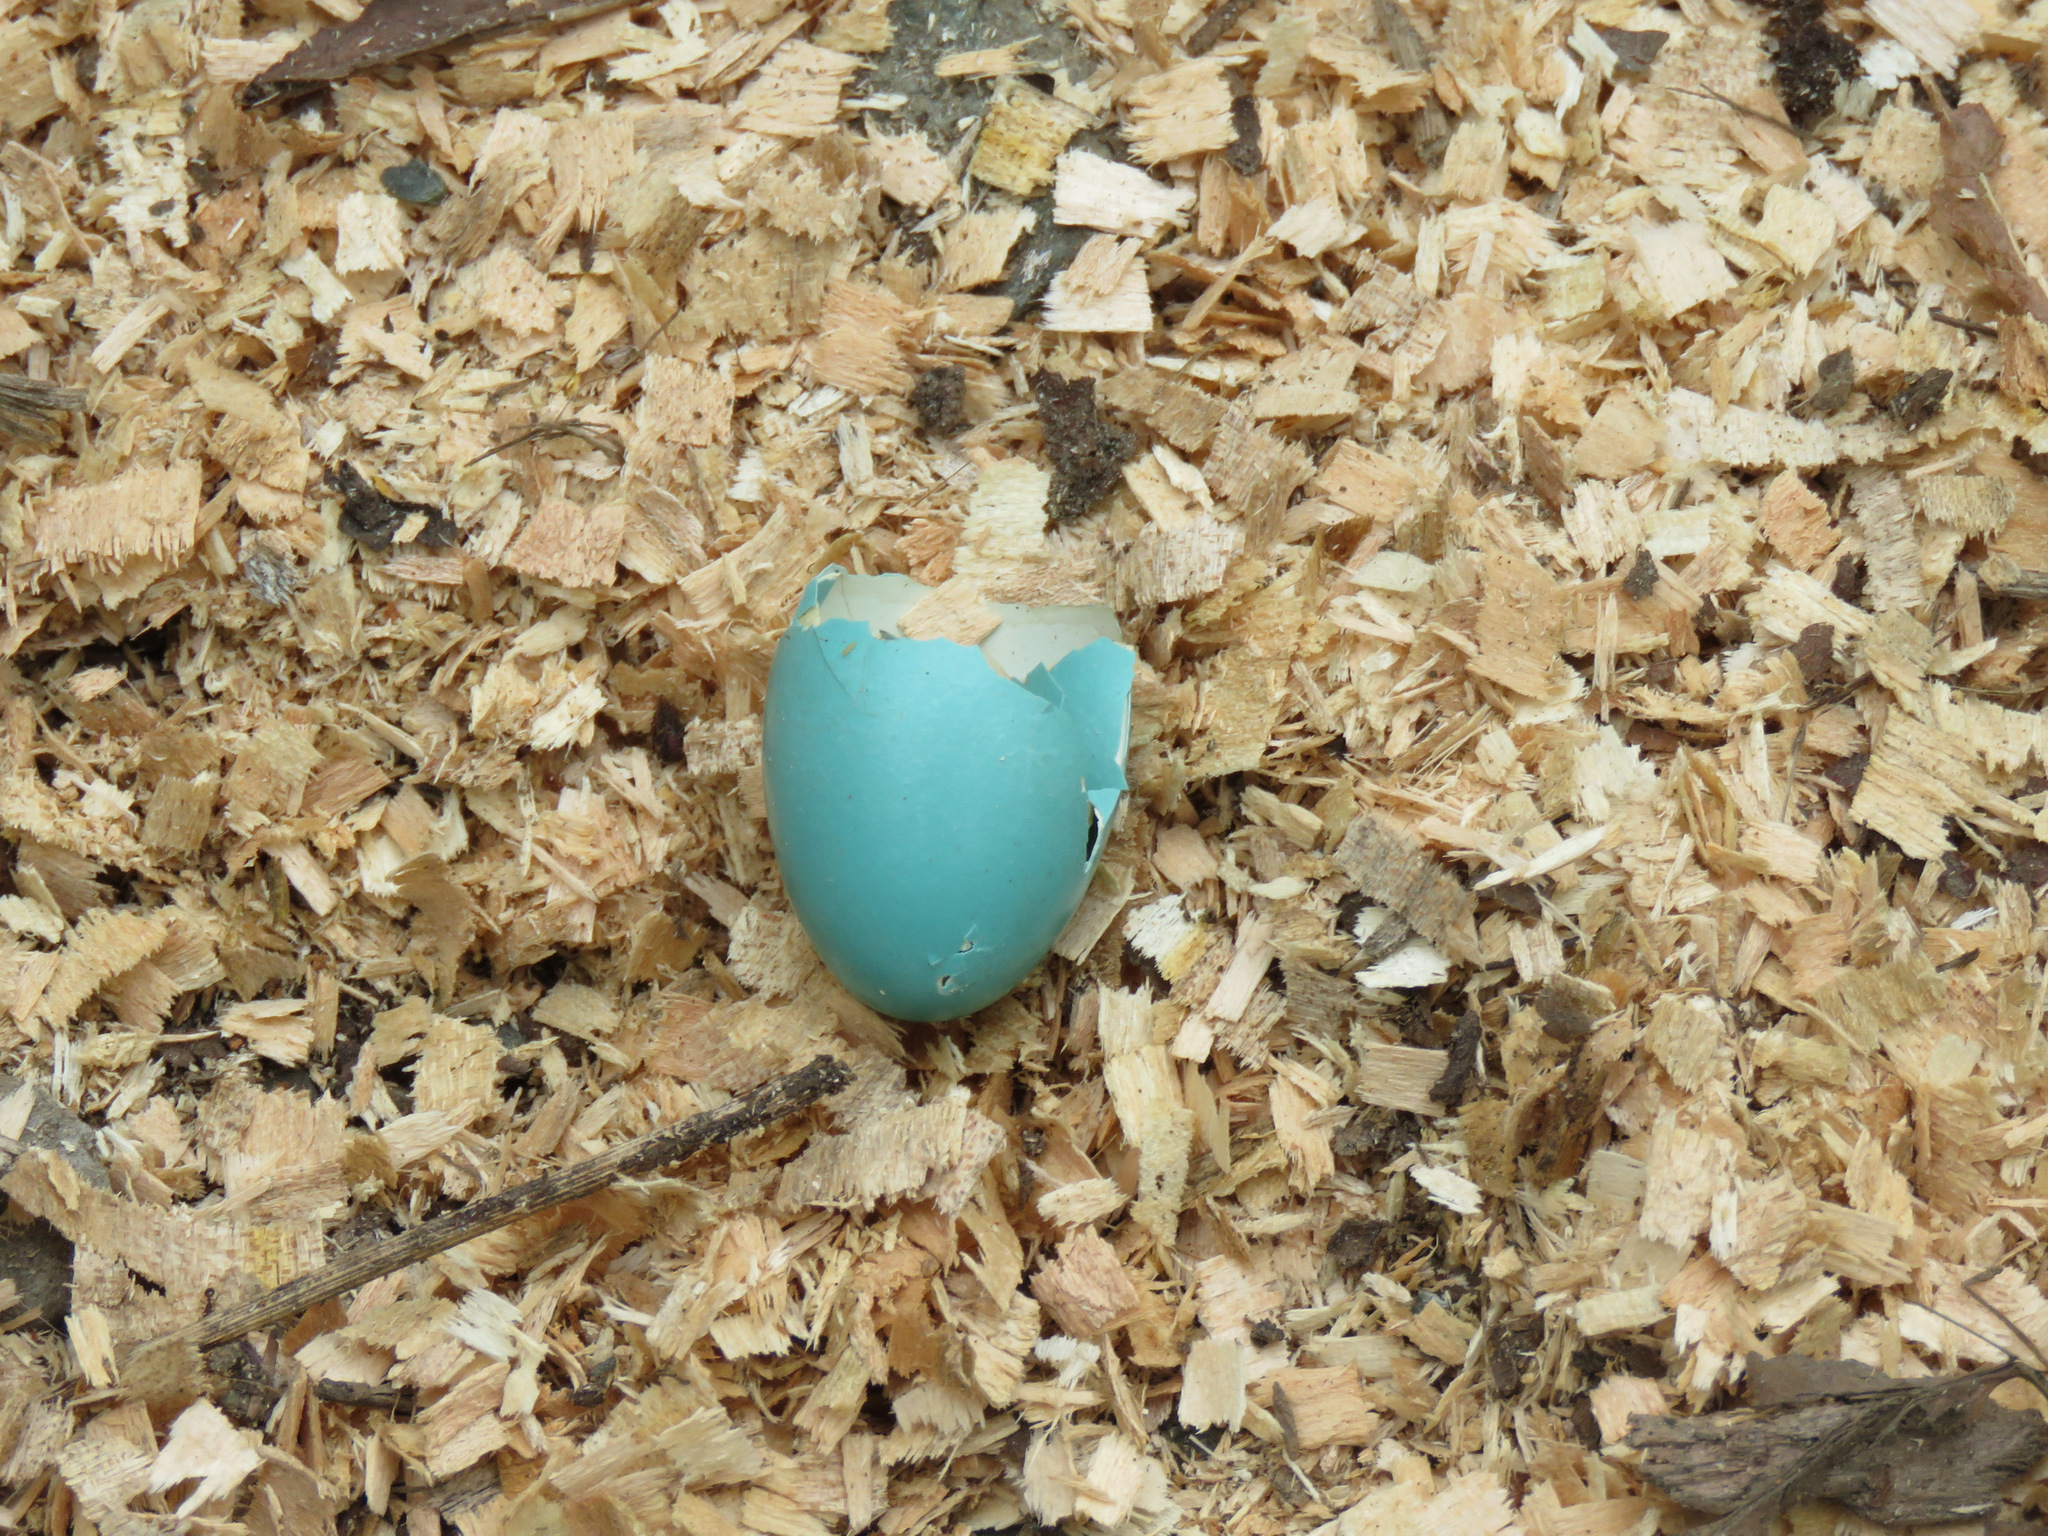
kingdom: Animalia
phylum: Chordata
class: Aves
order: Passeriformes
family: Turdidae
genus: Turdus
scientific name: Turdus migratorius
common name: American robin
